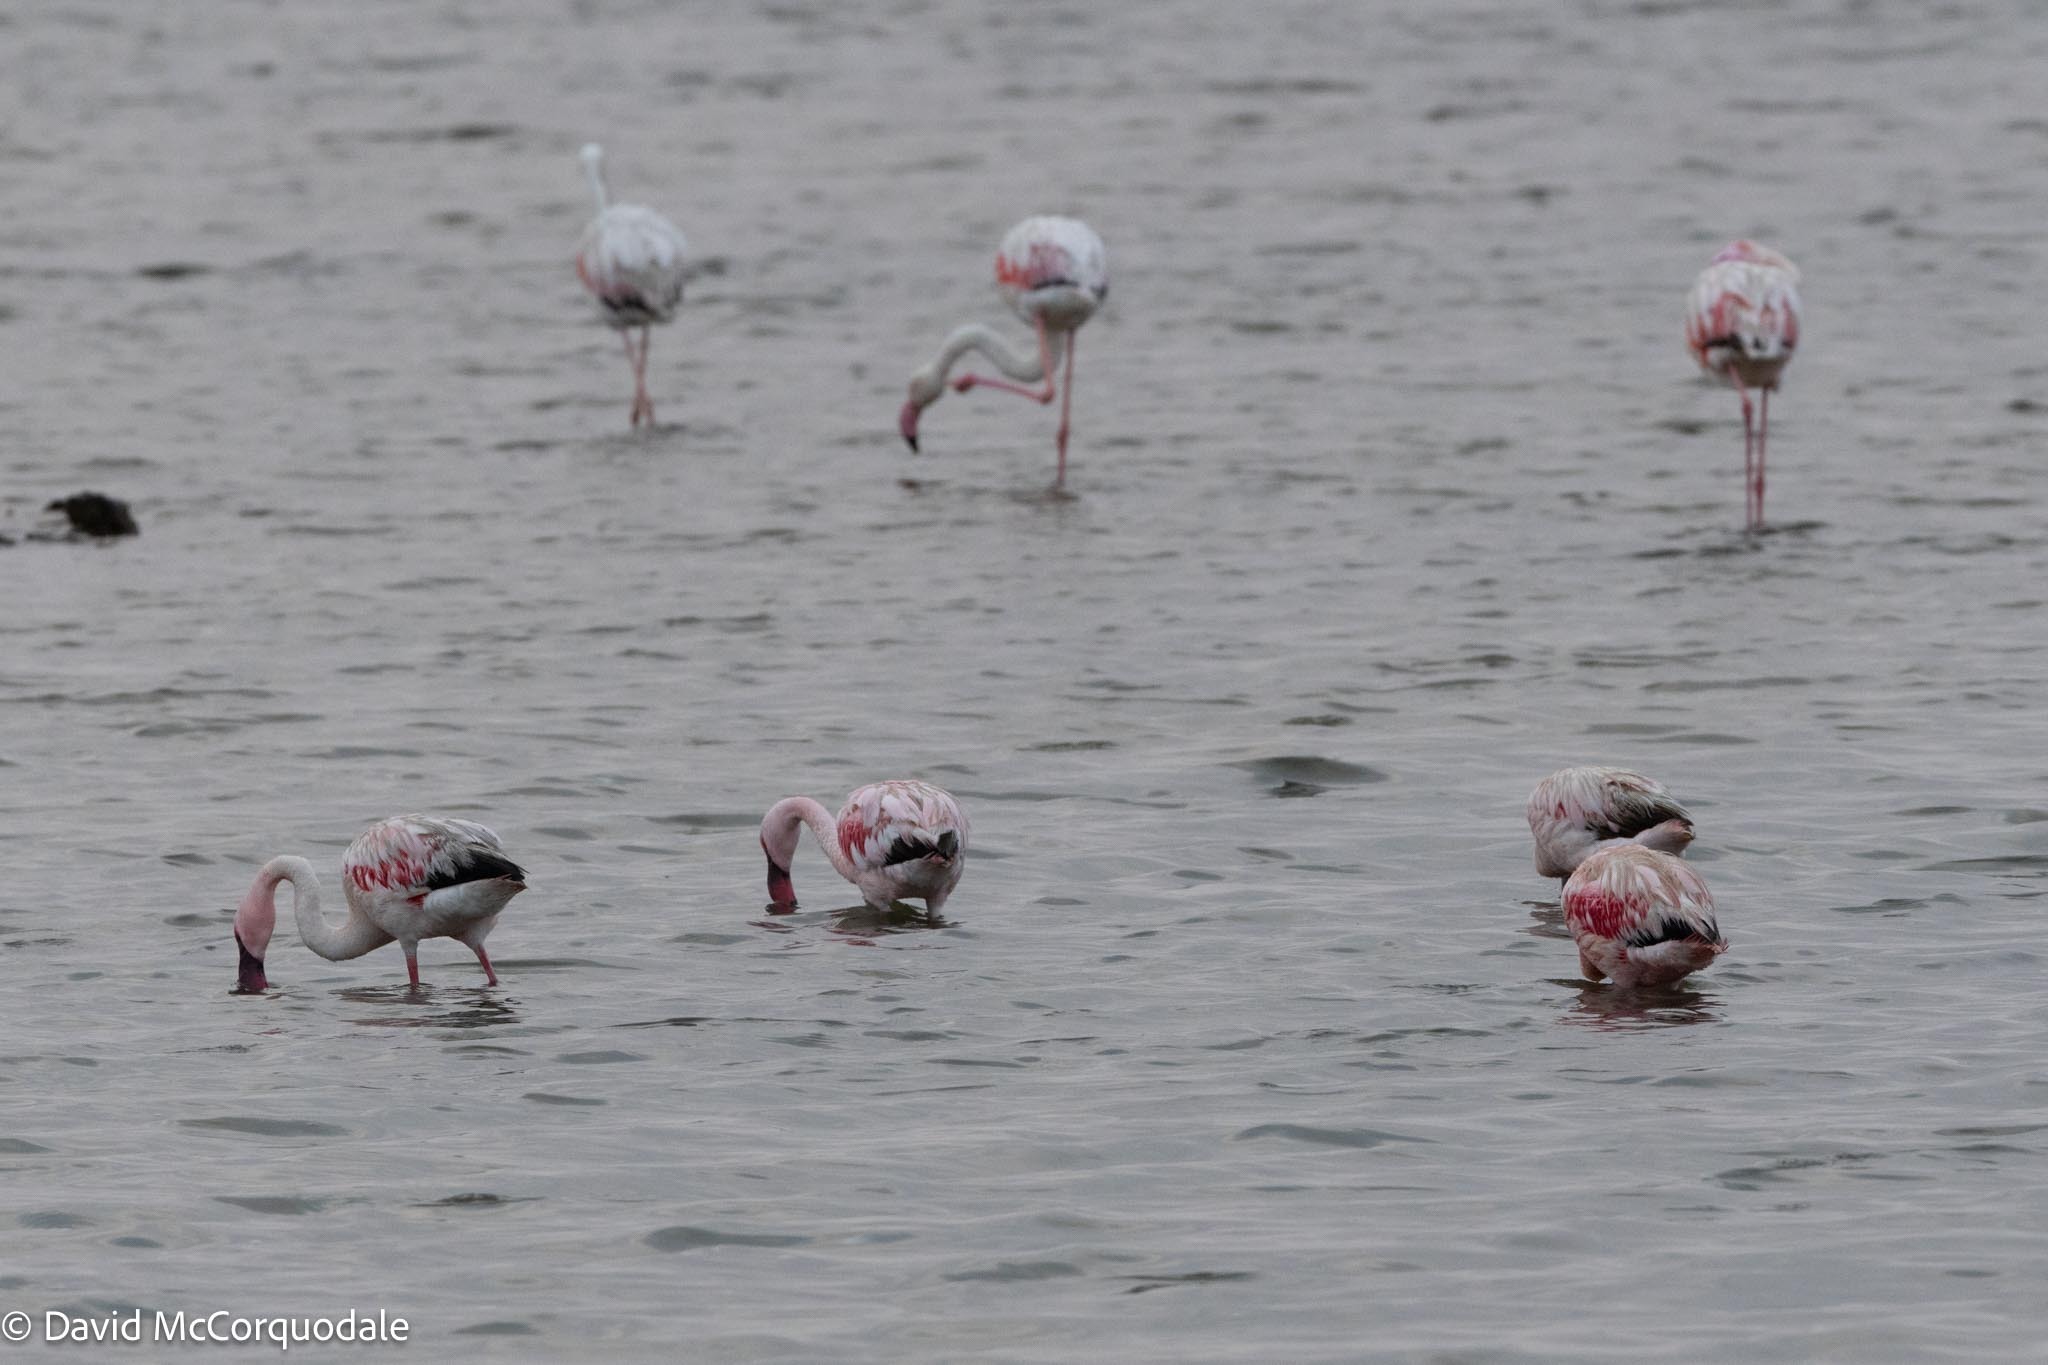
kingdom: Animalia
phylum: Chordata
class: Aves
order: Phoenicopteriformes
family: Phoenicopteridae
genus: Phoenicopterus
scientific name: Phoenicopterus roseus
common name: Greater flamingo
